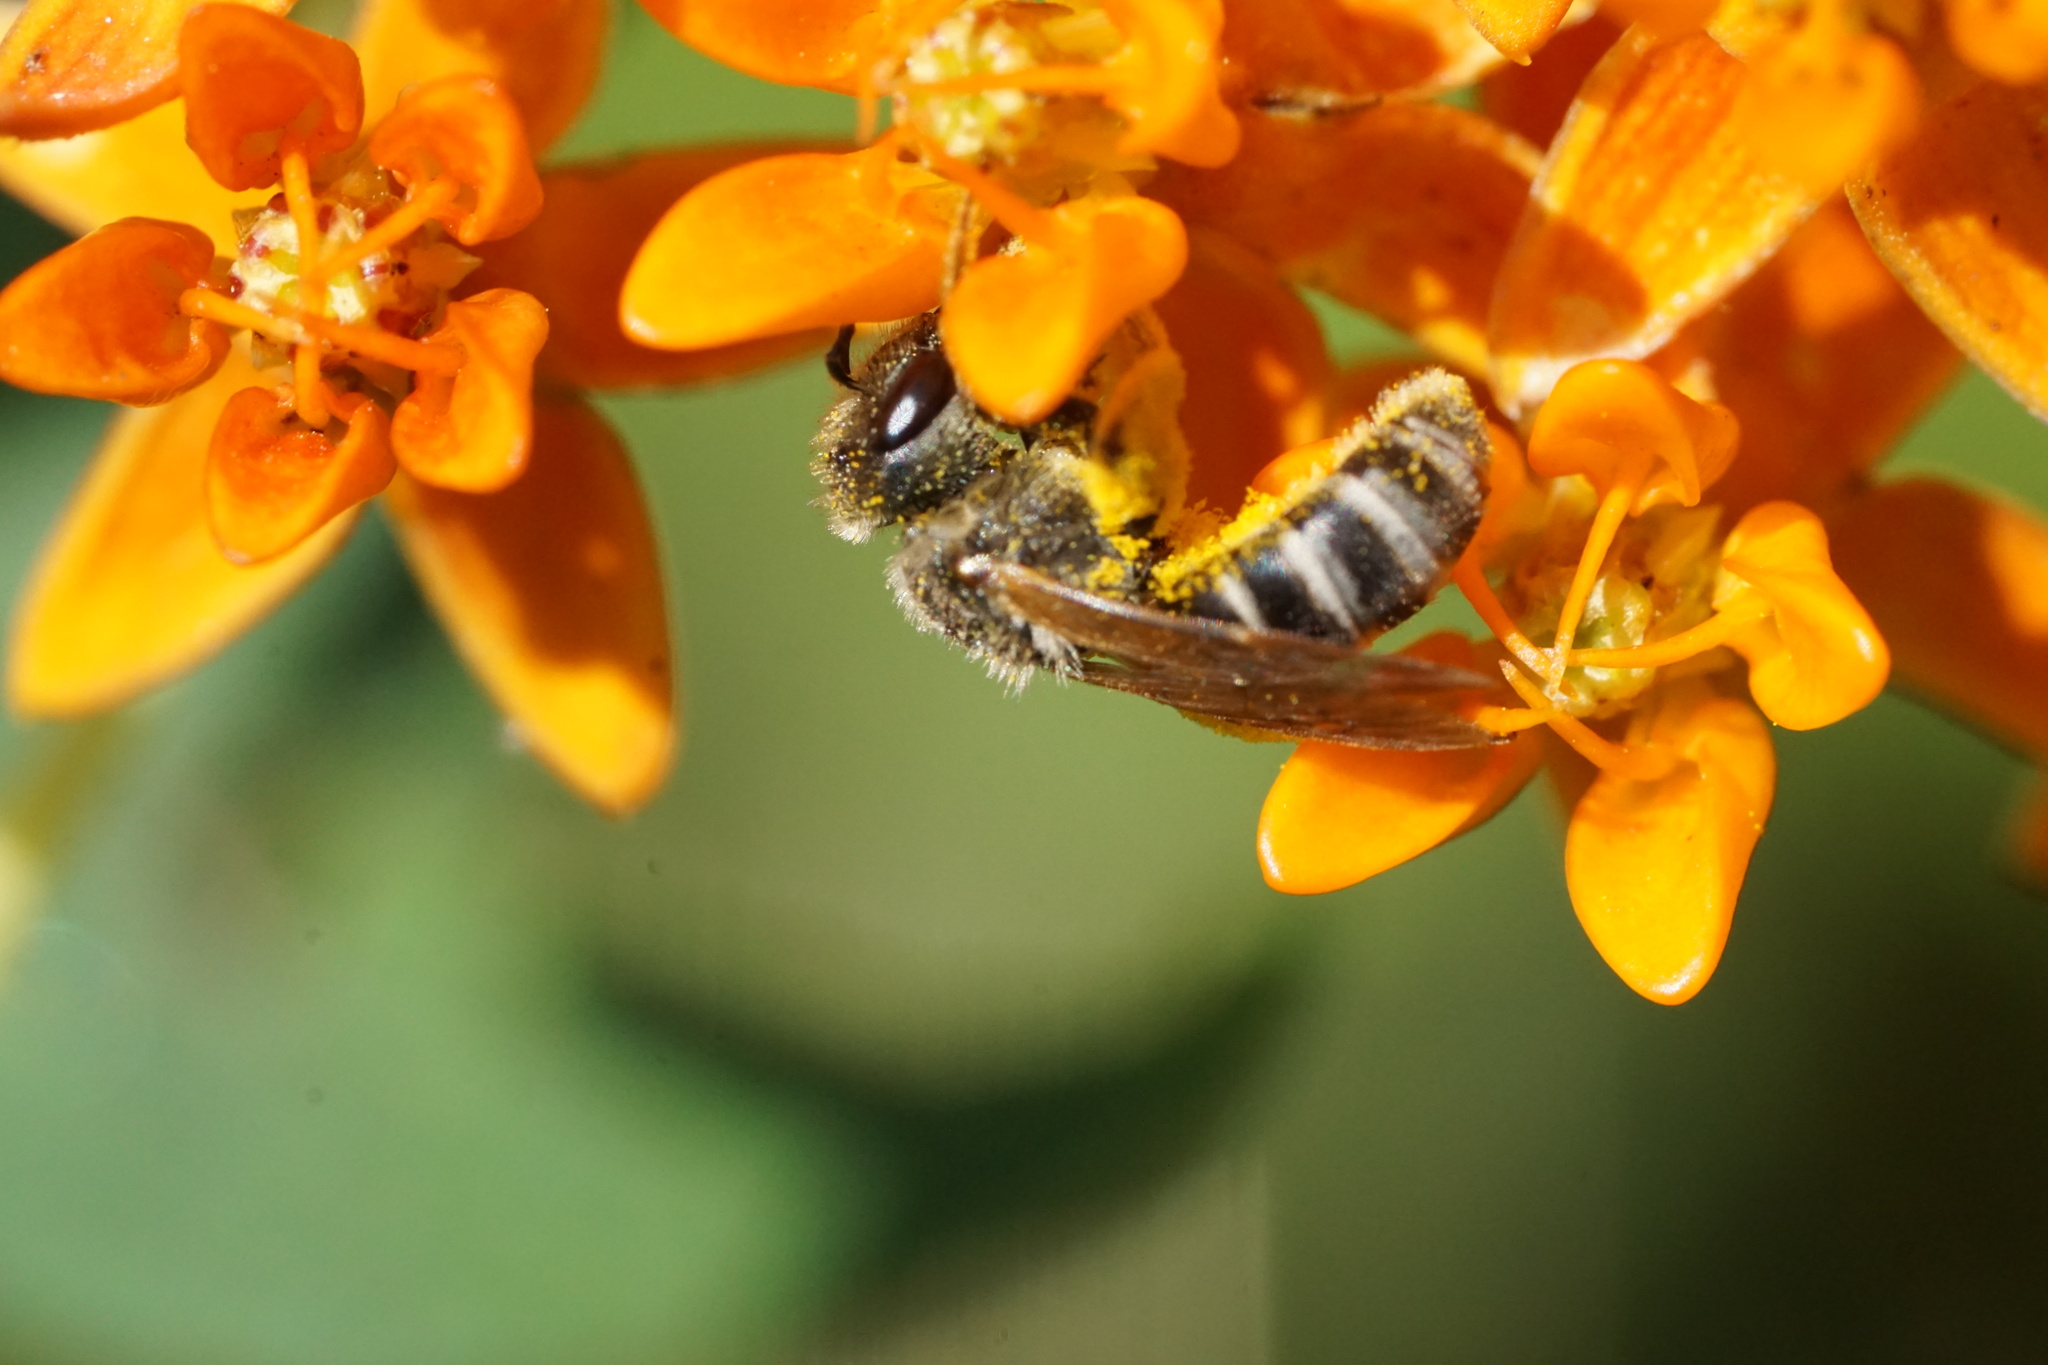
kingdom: Animalia
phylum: Arthropoda
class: Insecta
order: Hymenoptera
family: Halictidae
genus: Halictus
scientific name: Halictus ligatus
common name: Ligated furrow bee
